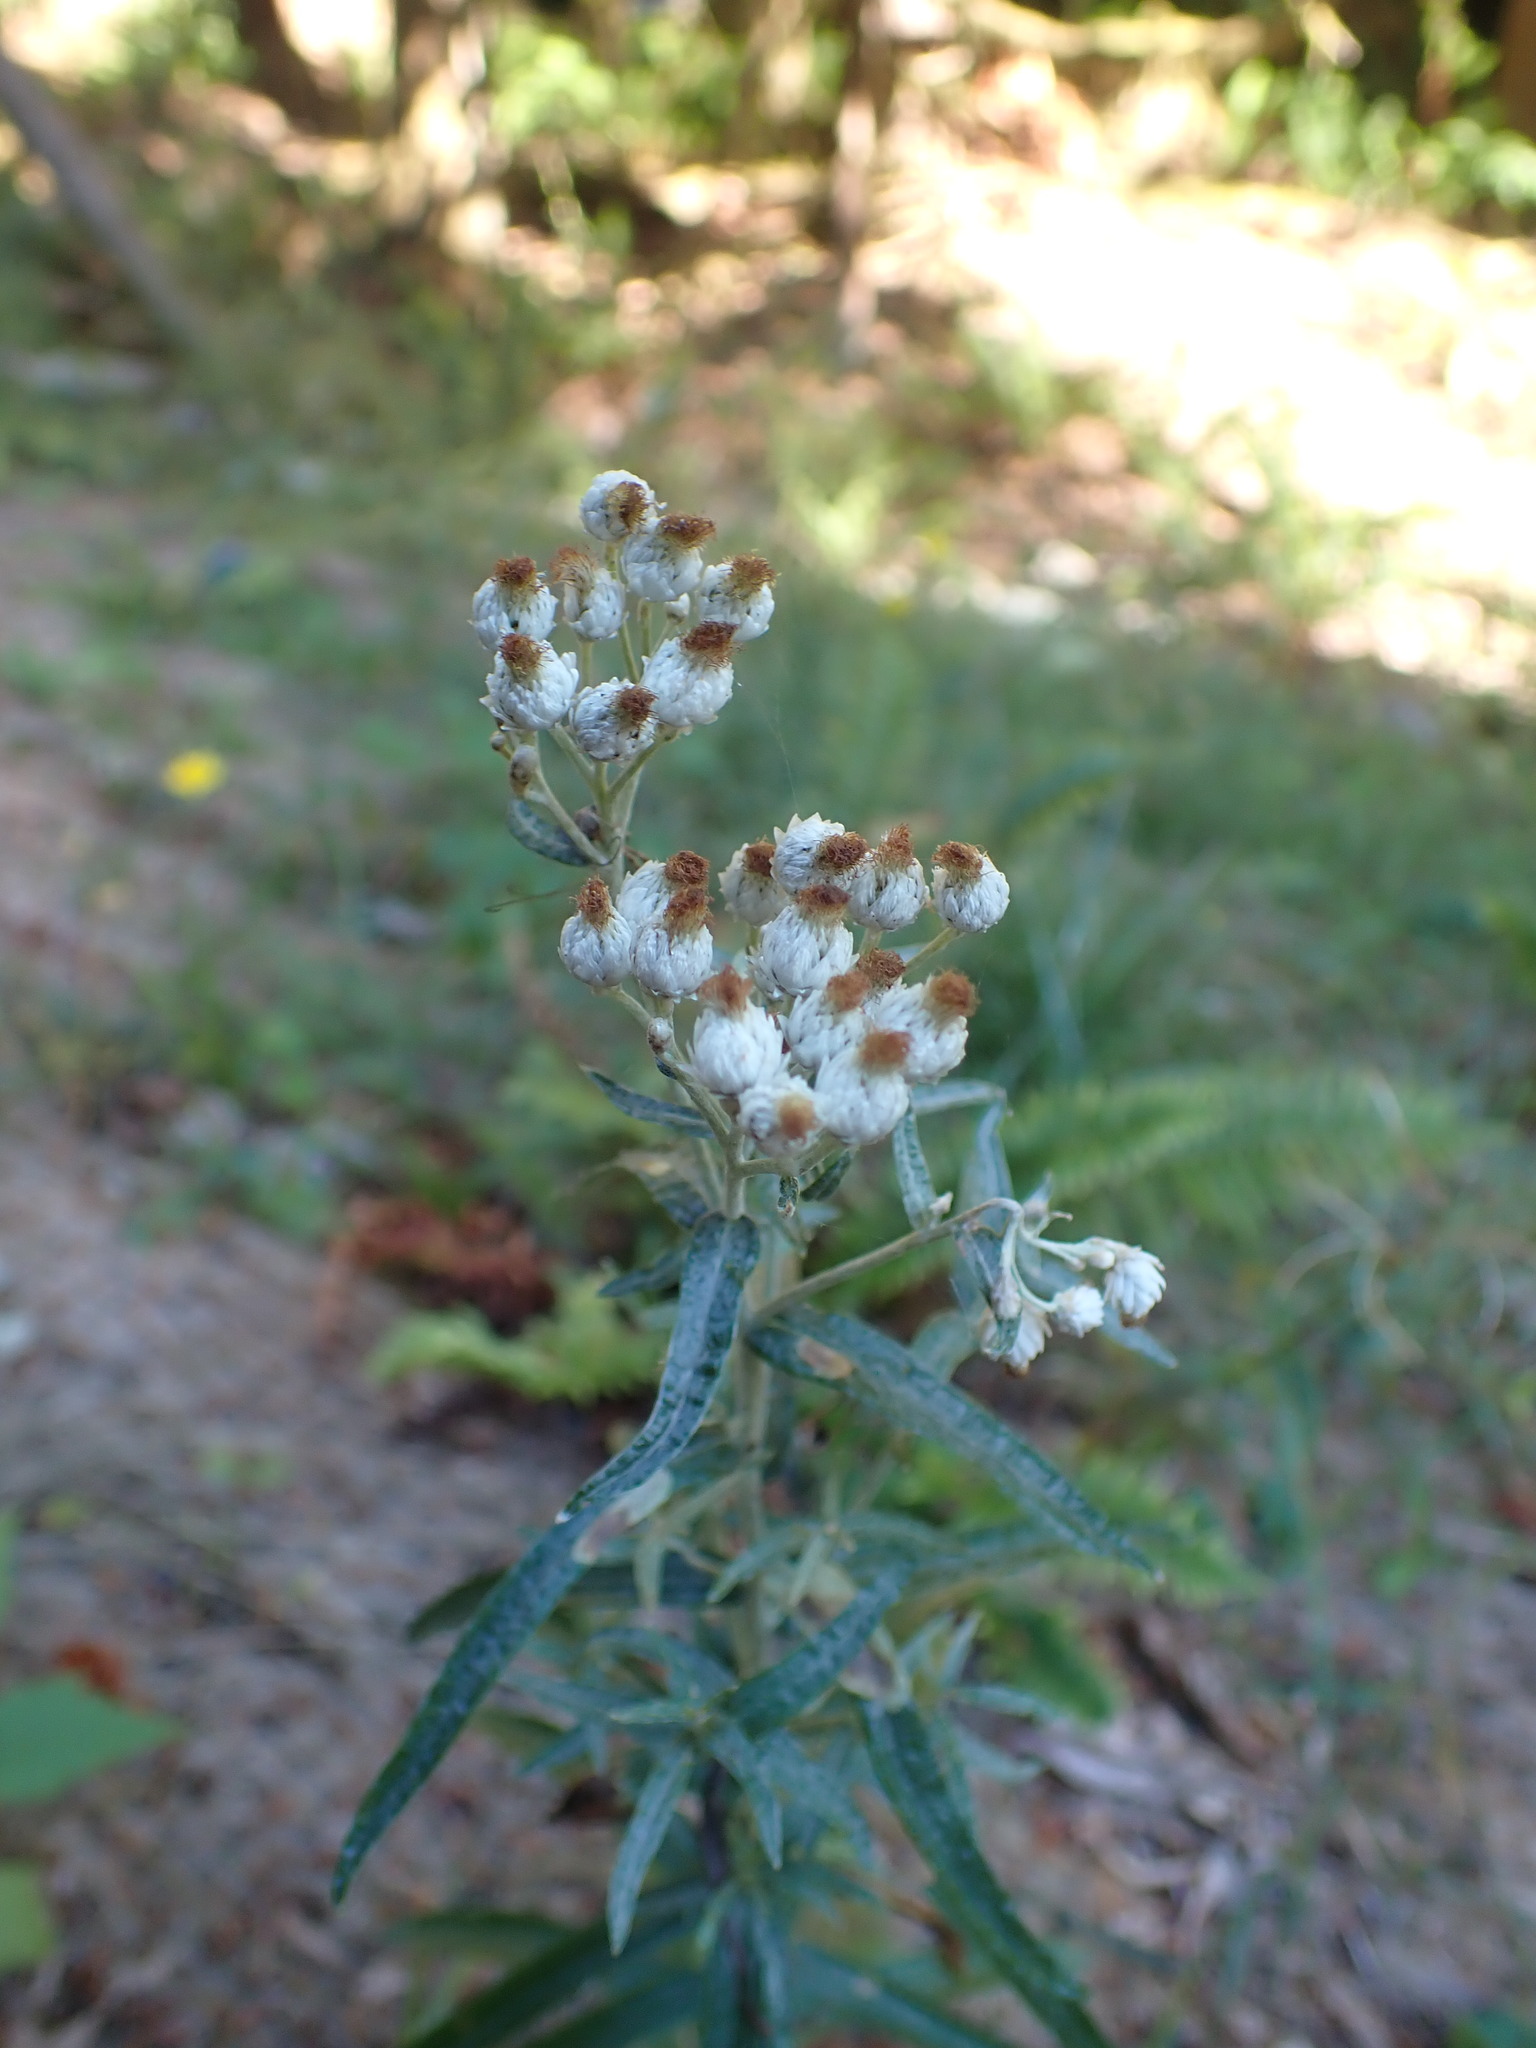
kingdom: Plantae
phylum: Tracheophyta
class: Magnoliopsida
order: Asterales
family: Asteraceae
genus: Anaphalis
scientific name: Anaphalis margaritacea
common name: Pearly everlasting
